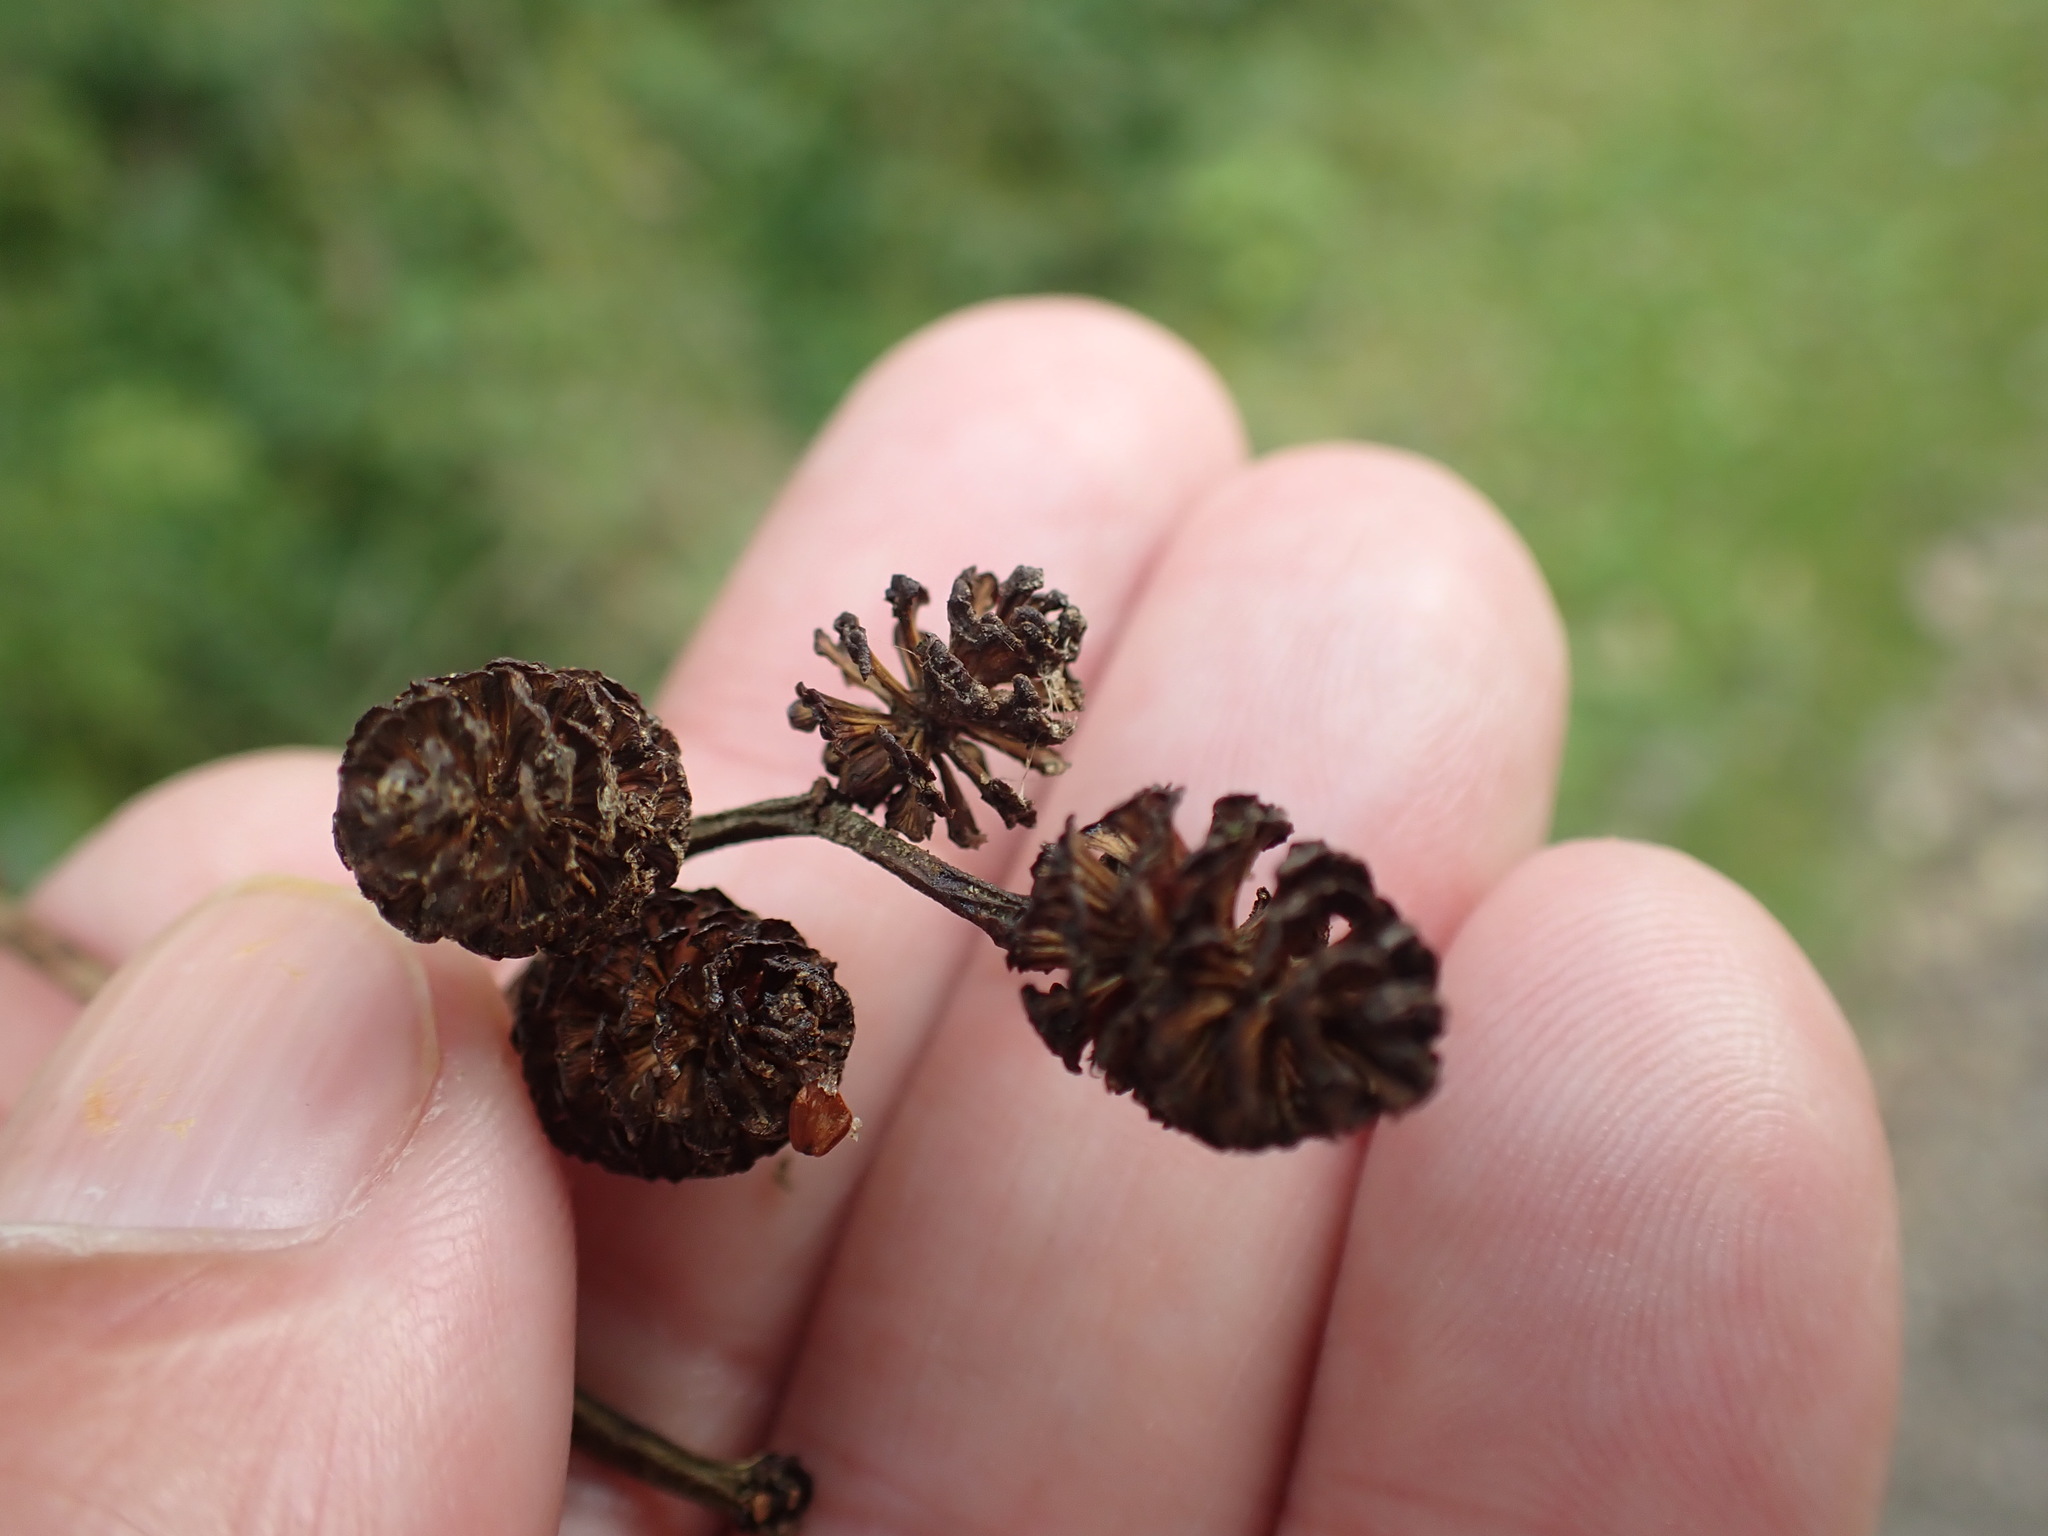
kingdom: Plantae
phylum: Tracheophyta
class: Magnoliopsida
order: Fagales
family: Betulaceae
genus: Alnus
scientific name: Alnus glutinosa
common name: Black alder
